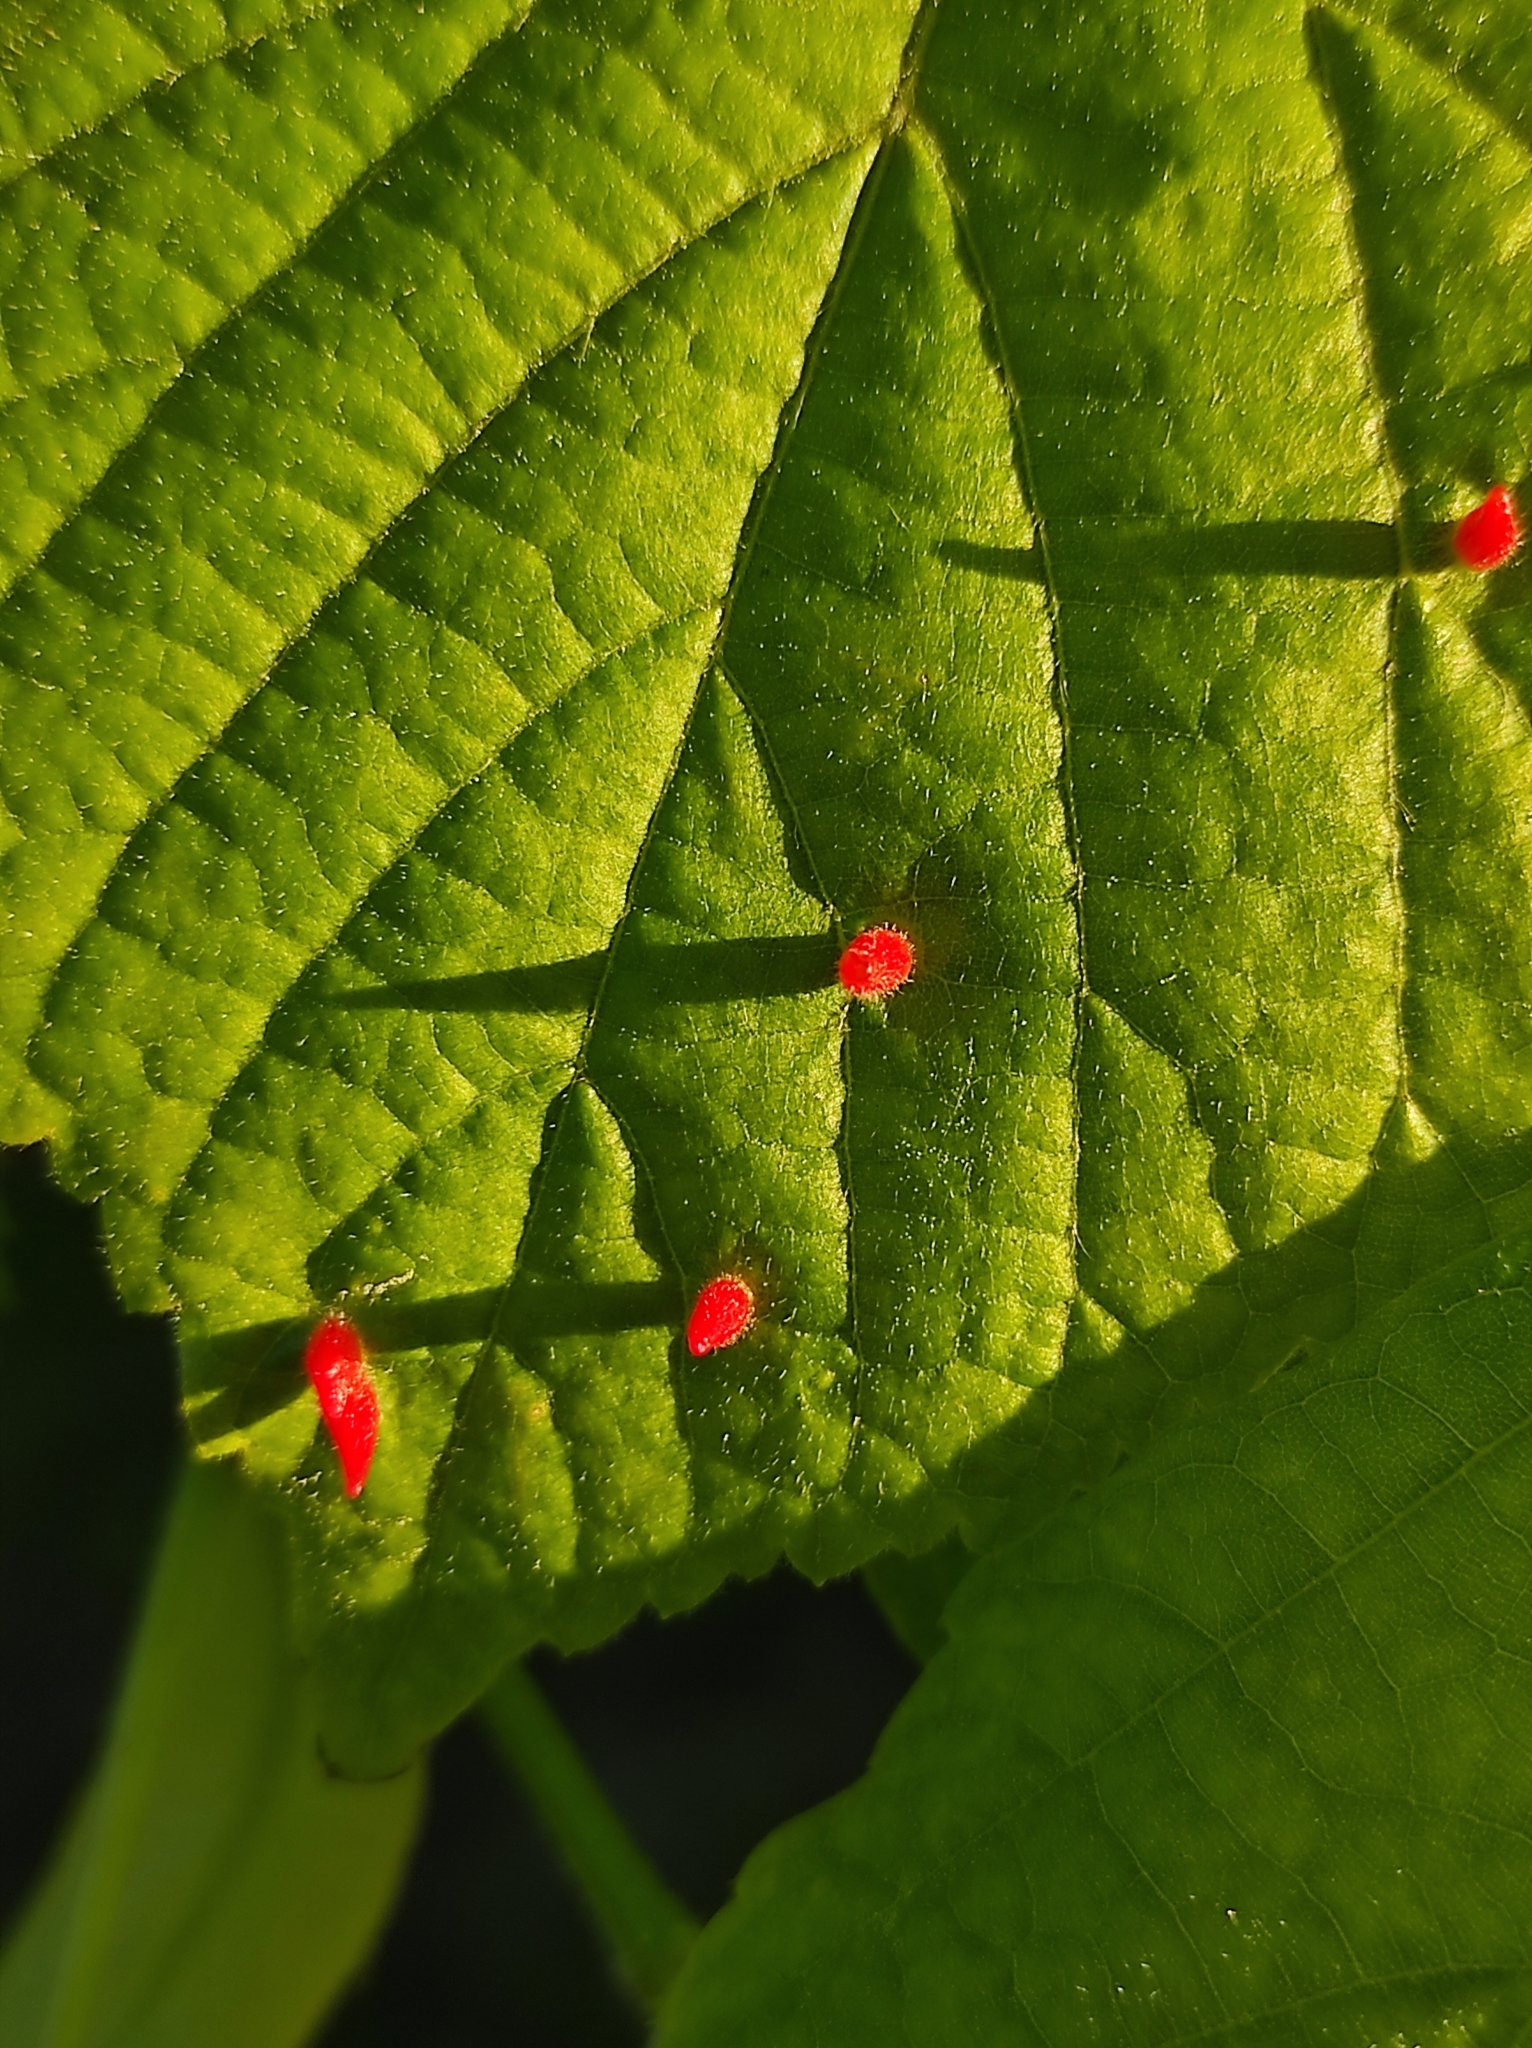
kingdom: Animalia
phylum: Arthropoda
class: Arachnida
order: Trombidiformes
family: Eriophyidae
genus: Eriophyes
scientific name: Eriophyes tiliae
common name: Red nail gall mite
